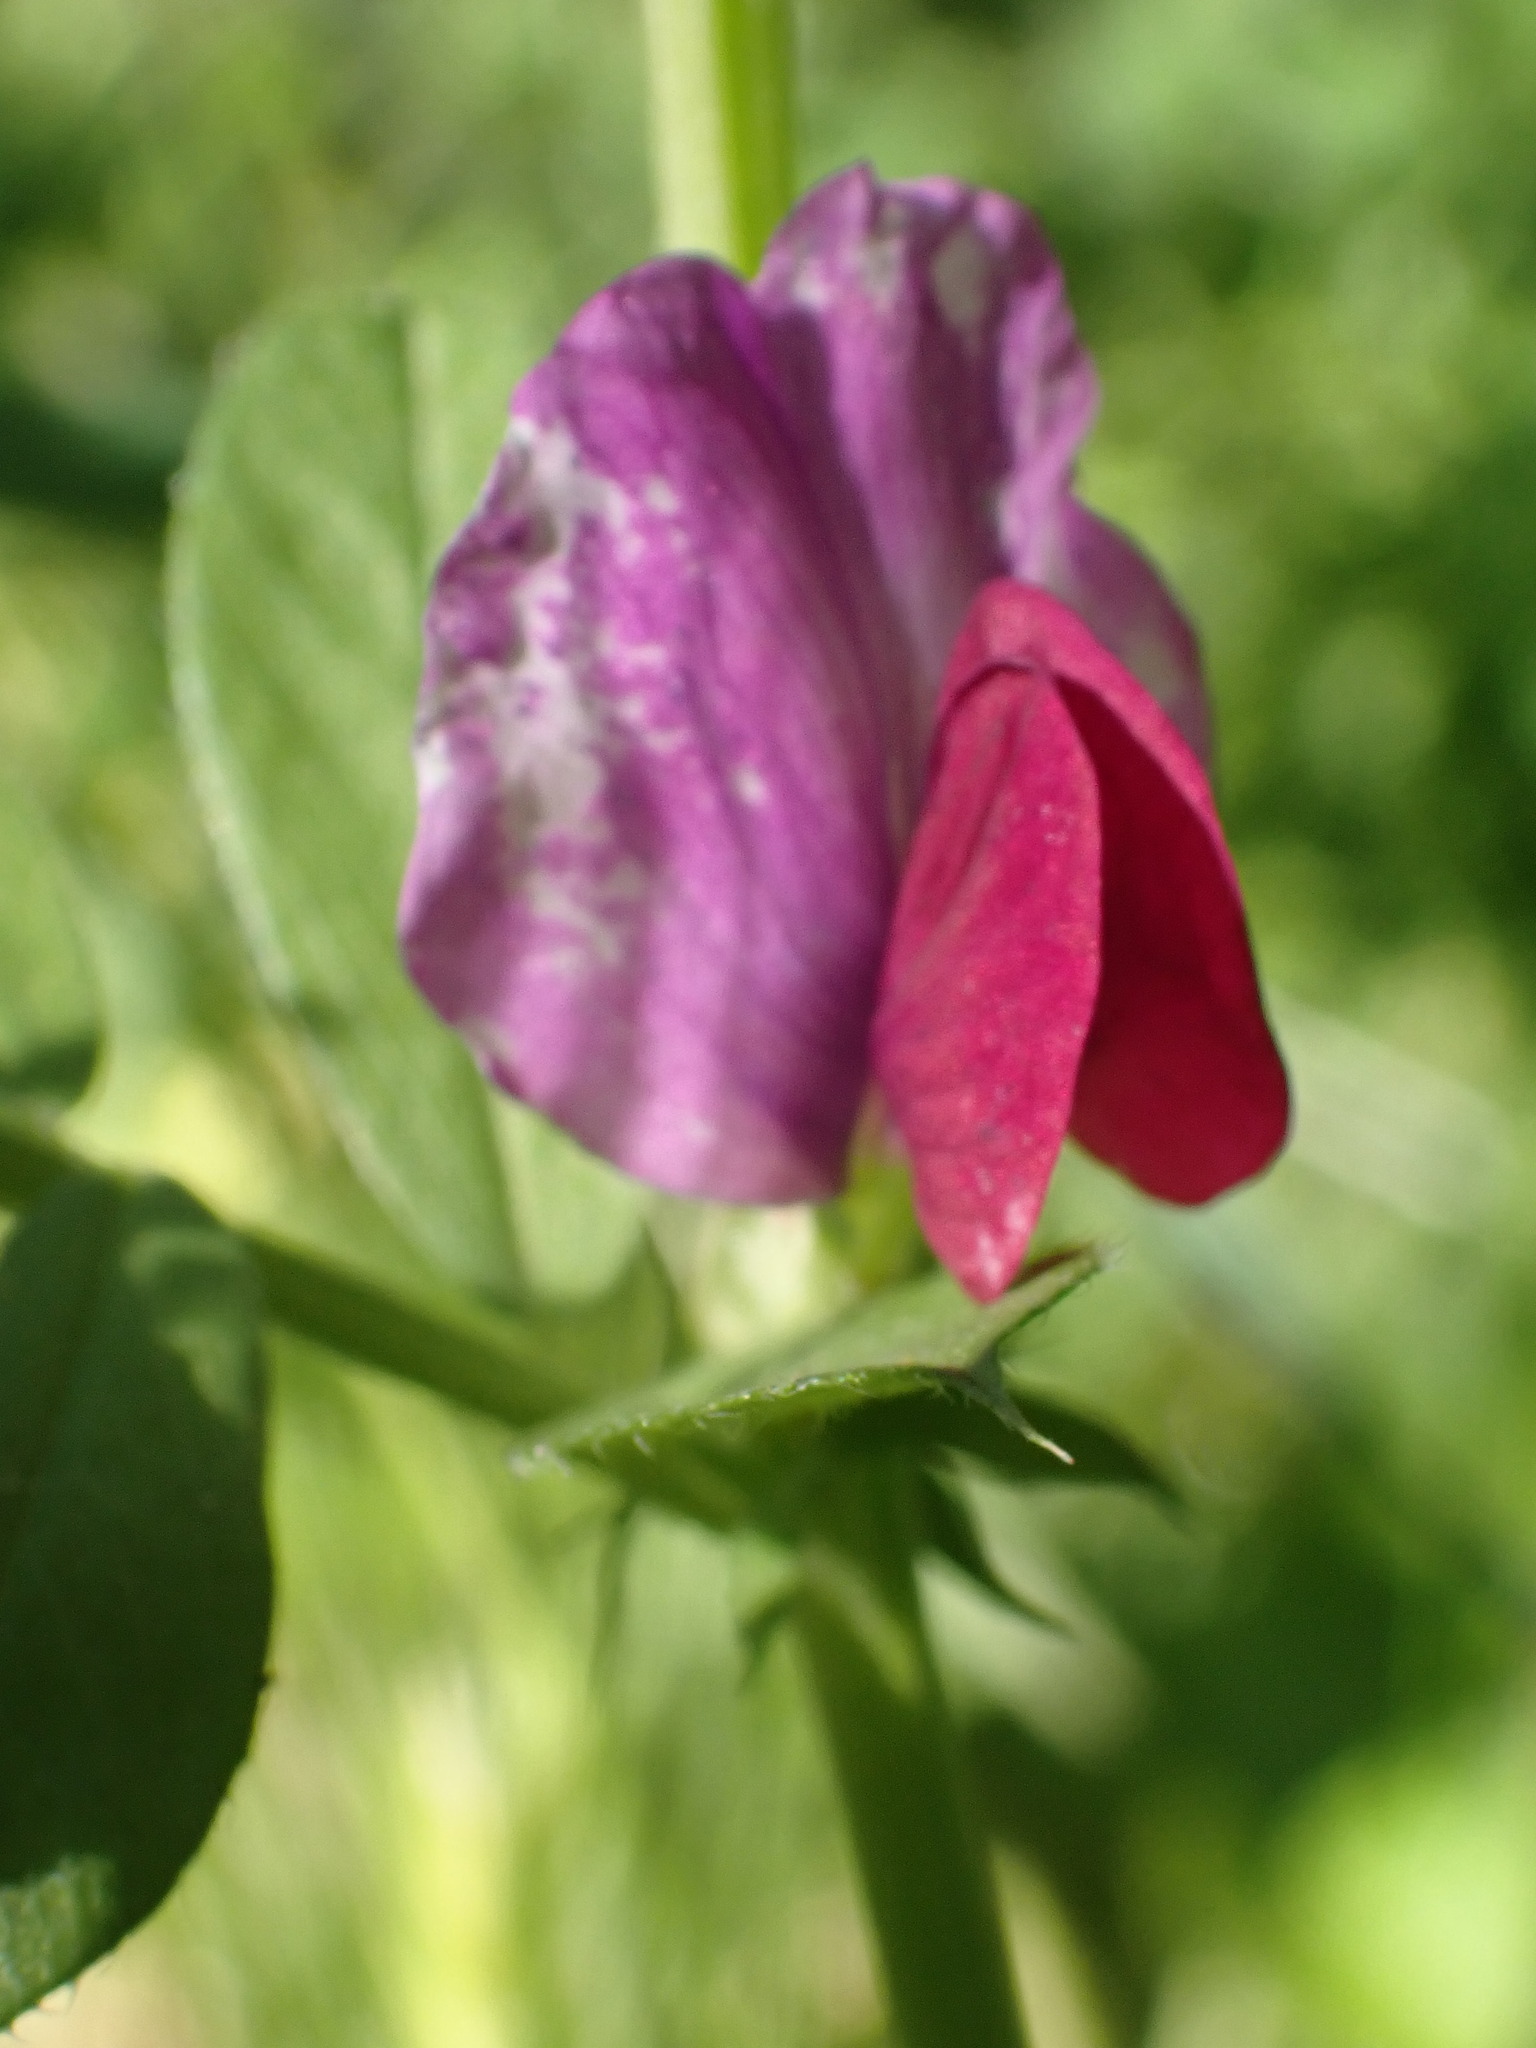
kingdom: Plantae
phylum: Tracheophyta
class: Magnoliopsida
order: Fabales
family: Fabaceae
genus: Vicia
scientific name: Vicia sativa
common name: Garden vetch
